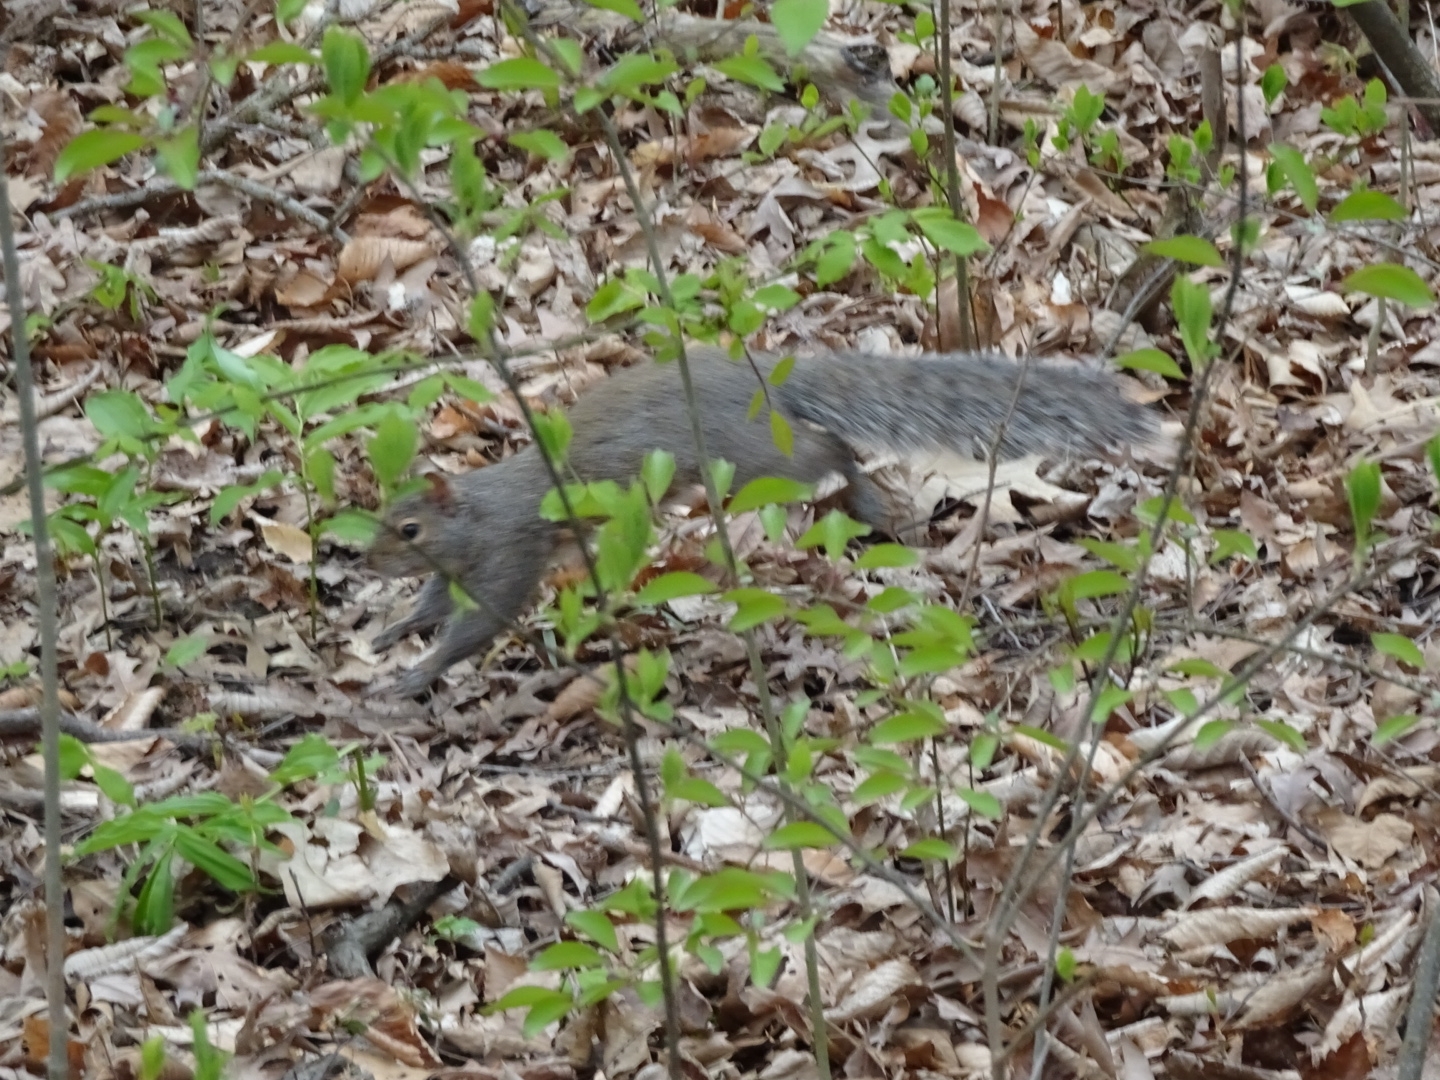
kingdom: Animalia
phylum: Chordata
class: Mammalia
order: Rodentia
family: Sciuridae
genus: Sciurus
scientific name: Sciurus carolinensis
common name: Eastern gray squirrel
